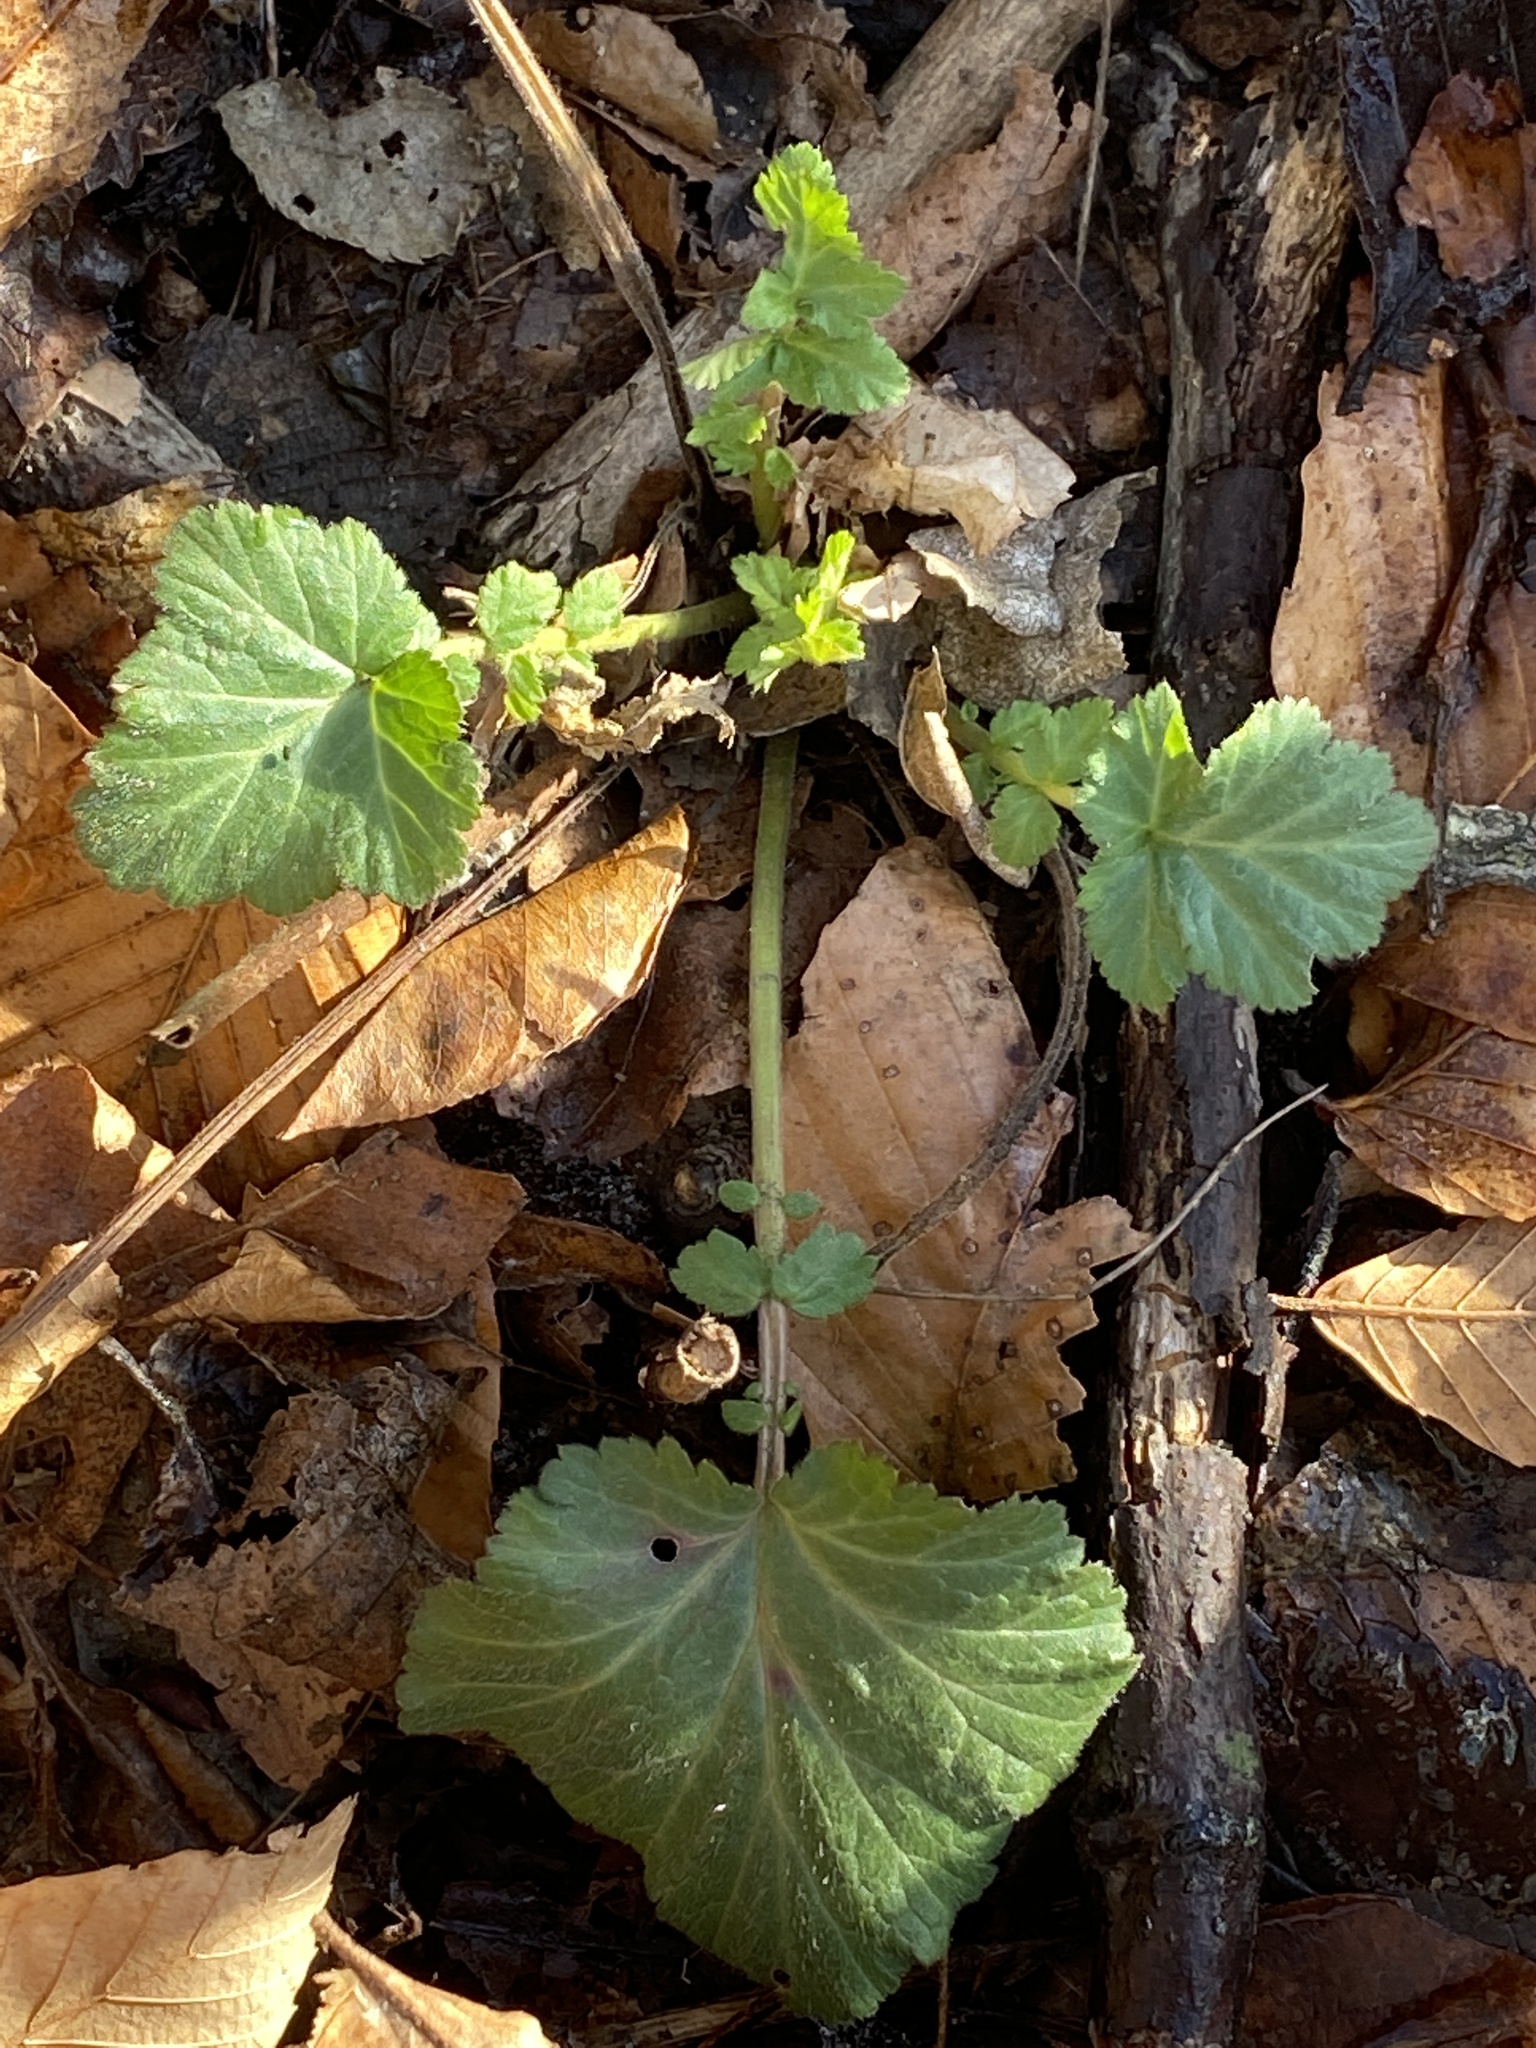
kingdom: Plantae
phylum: Tracheophyta
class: Magnoliopsida
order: Rosales
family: Rosaceae
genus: Geum
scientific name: Geum canadense
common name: White avens
